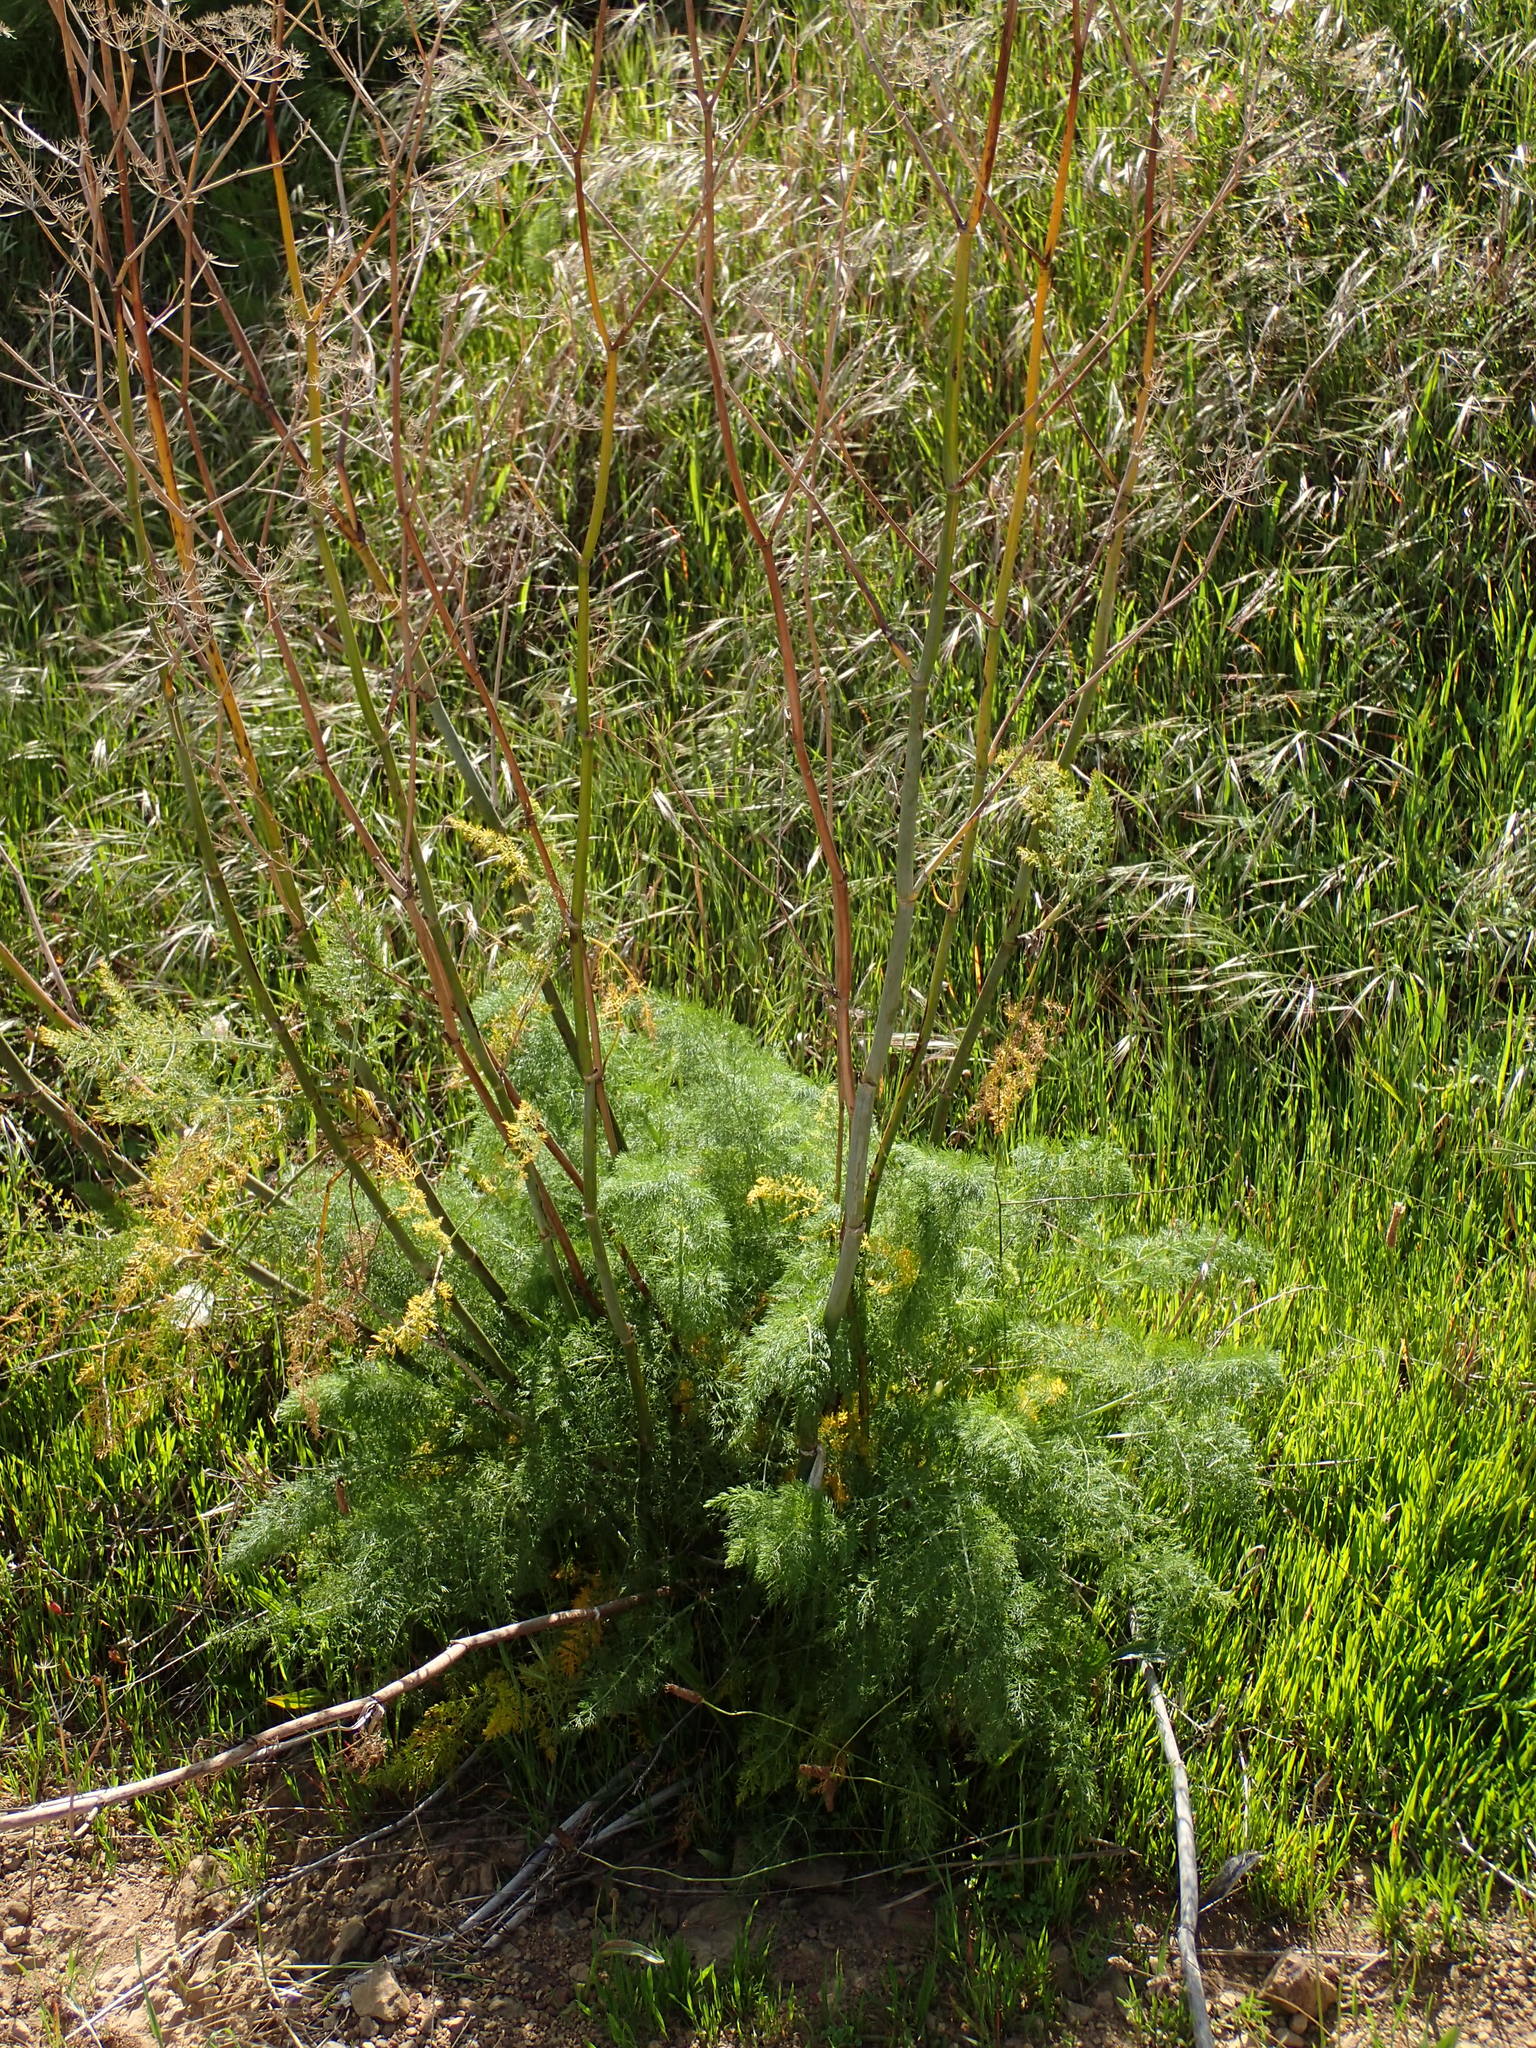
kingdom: Plantae
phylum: Tracheophyta
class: Magnoliopsida
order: Apiales
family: Apiaceae
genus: Foeniculum
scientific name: Foeniculum vulgare
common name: Fennel
